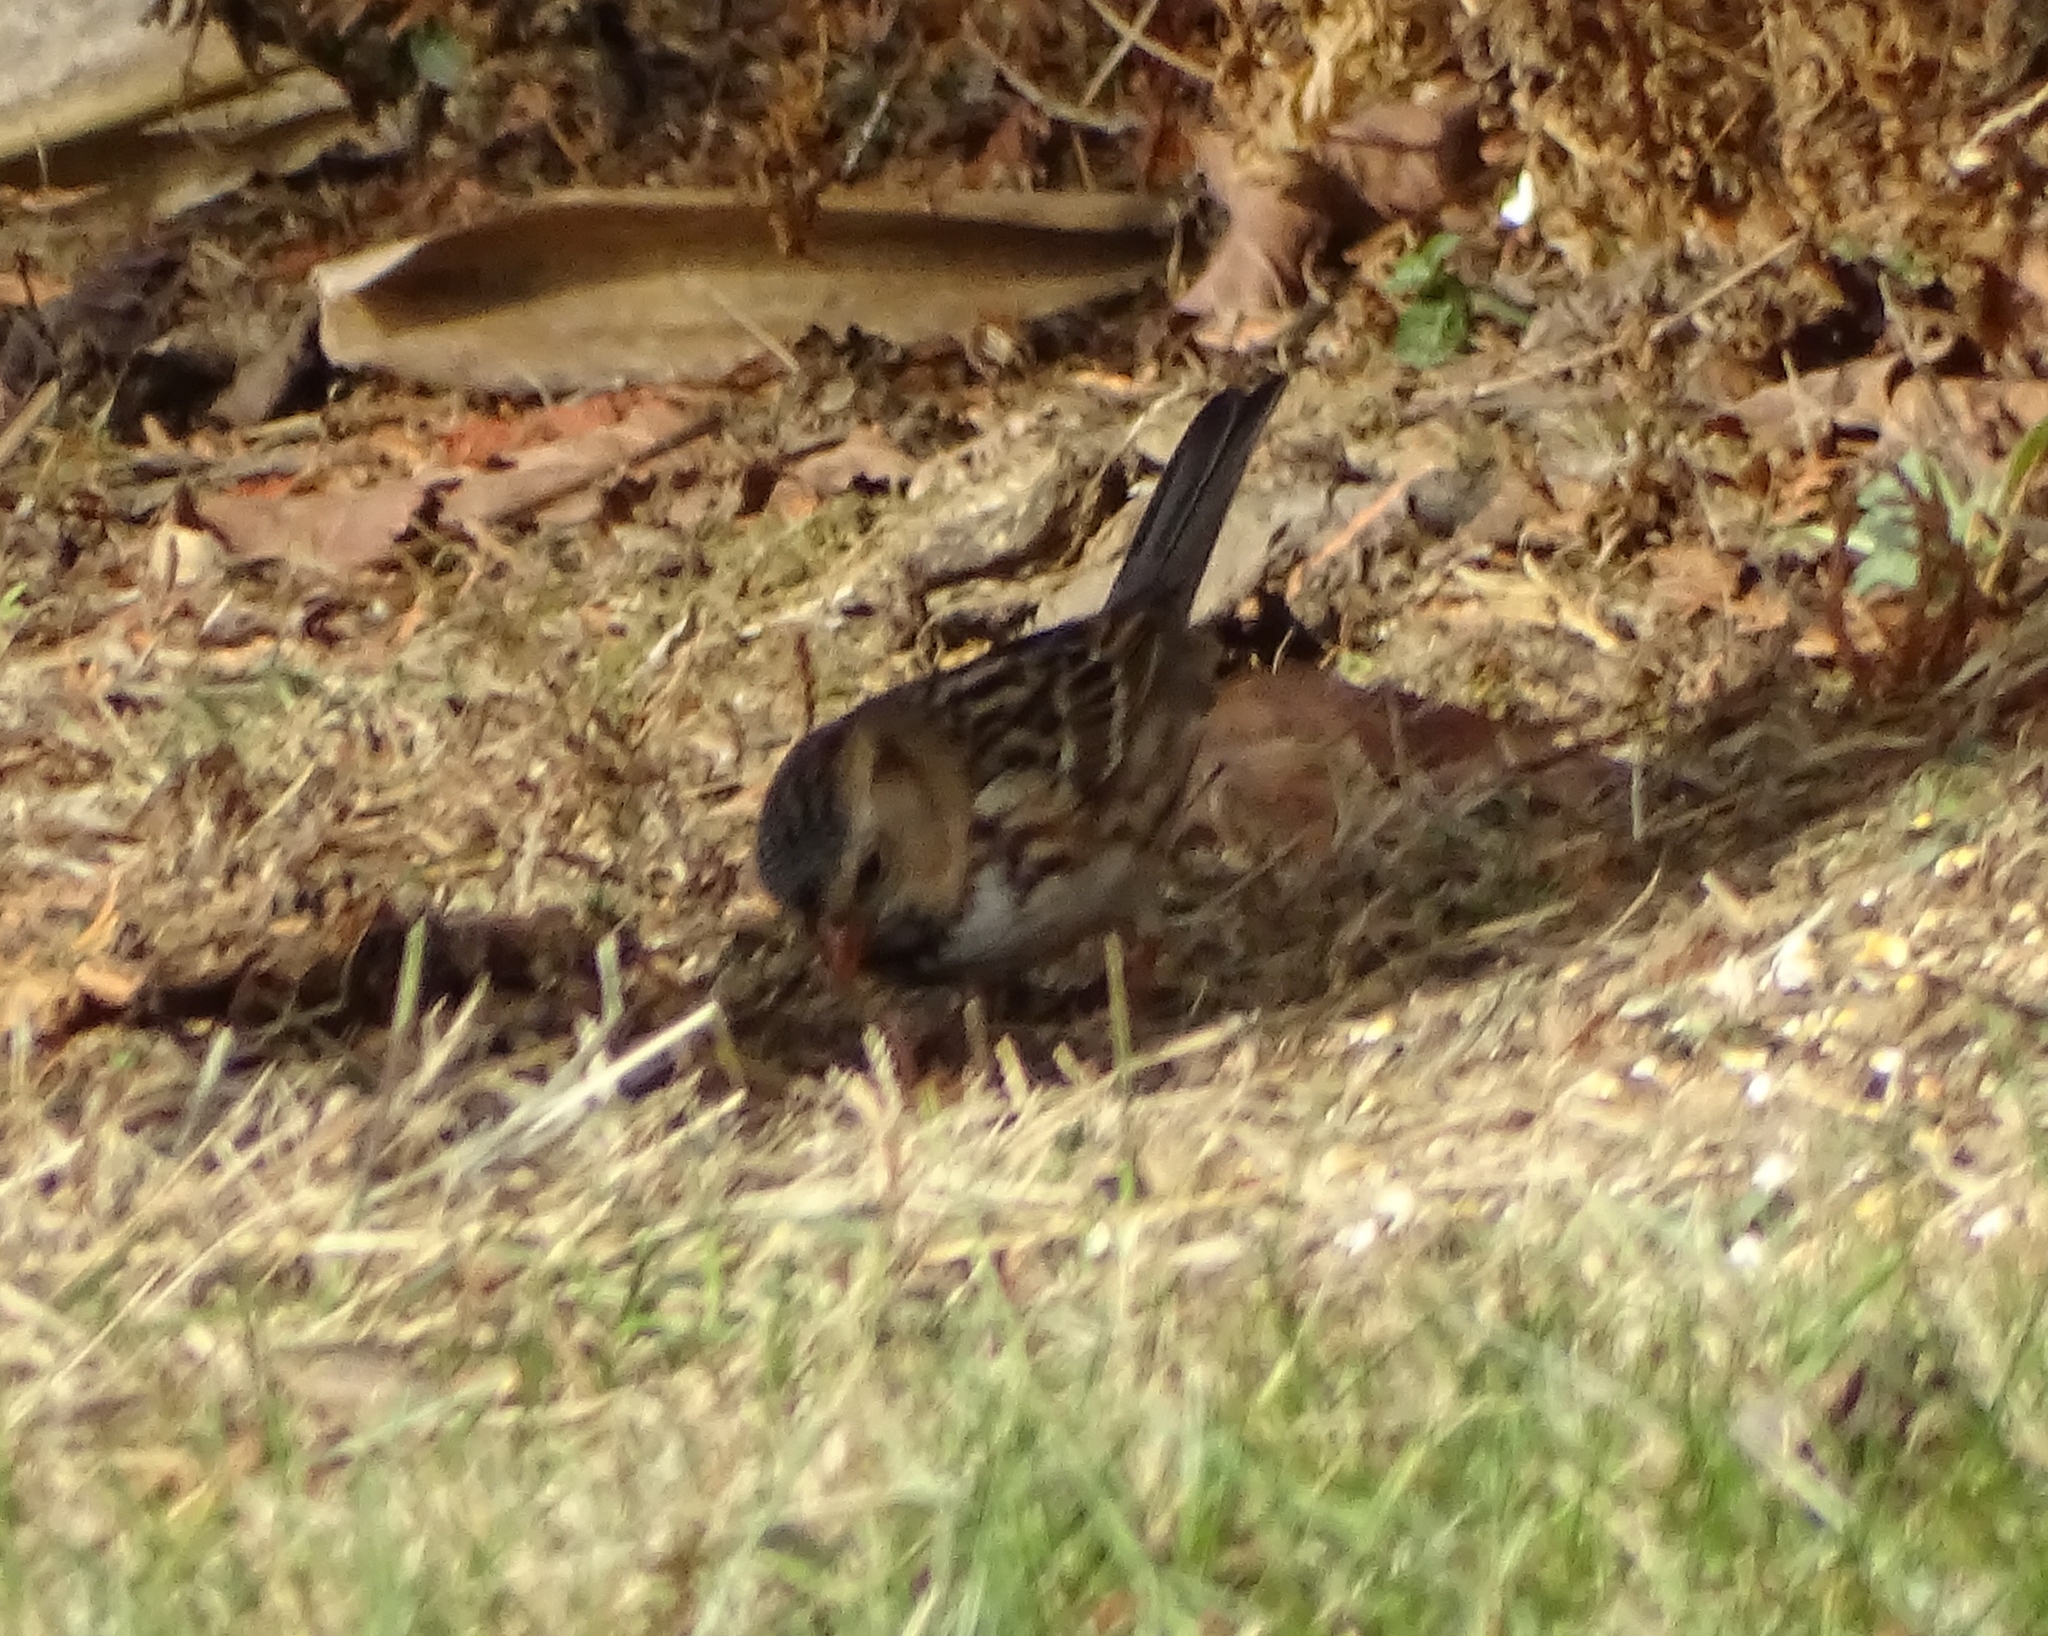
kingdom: Animalia
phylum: Chordata
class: Aves
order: Passeriformes
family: Passerellidae
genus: Zonotrichia
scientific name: Zonotrichia querula
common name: Harris's sparrow
